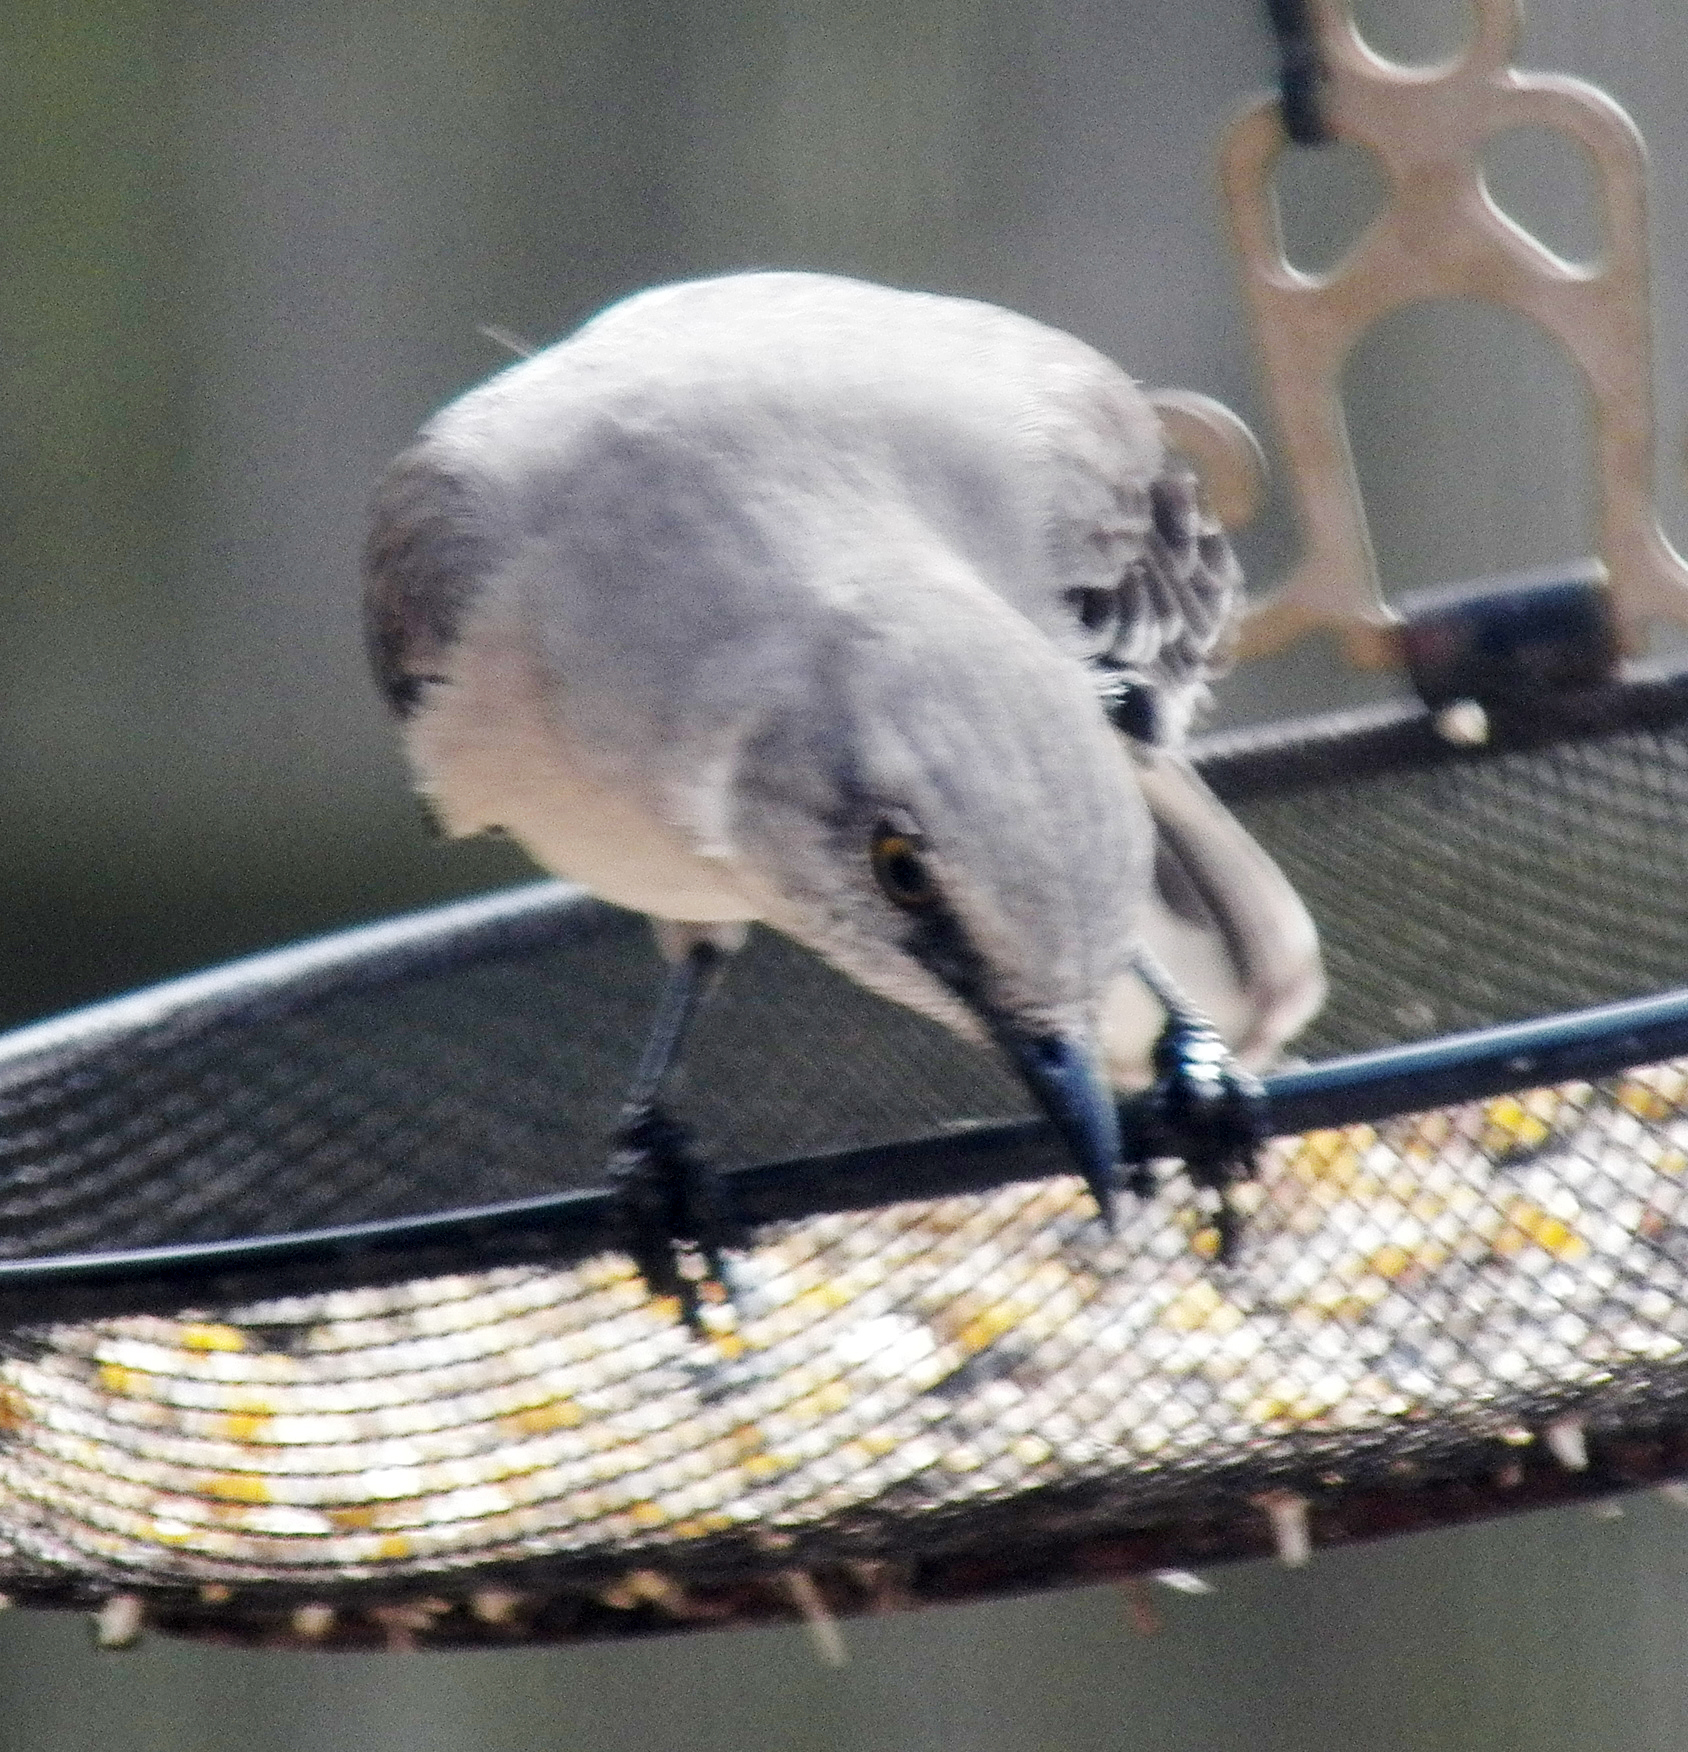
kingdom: Animalia
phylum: Chordata
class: Aves
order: Passeriformes
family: Mimidae
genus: Mimus
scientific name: Mimus polyglottos
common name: Northern mockingbird
